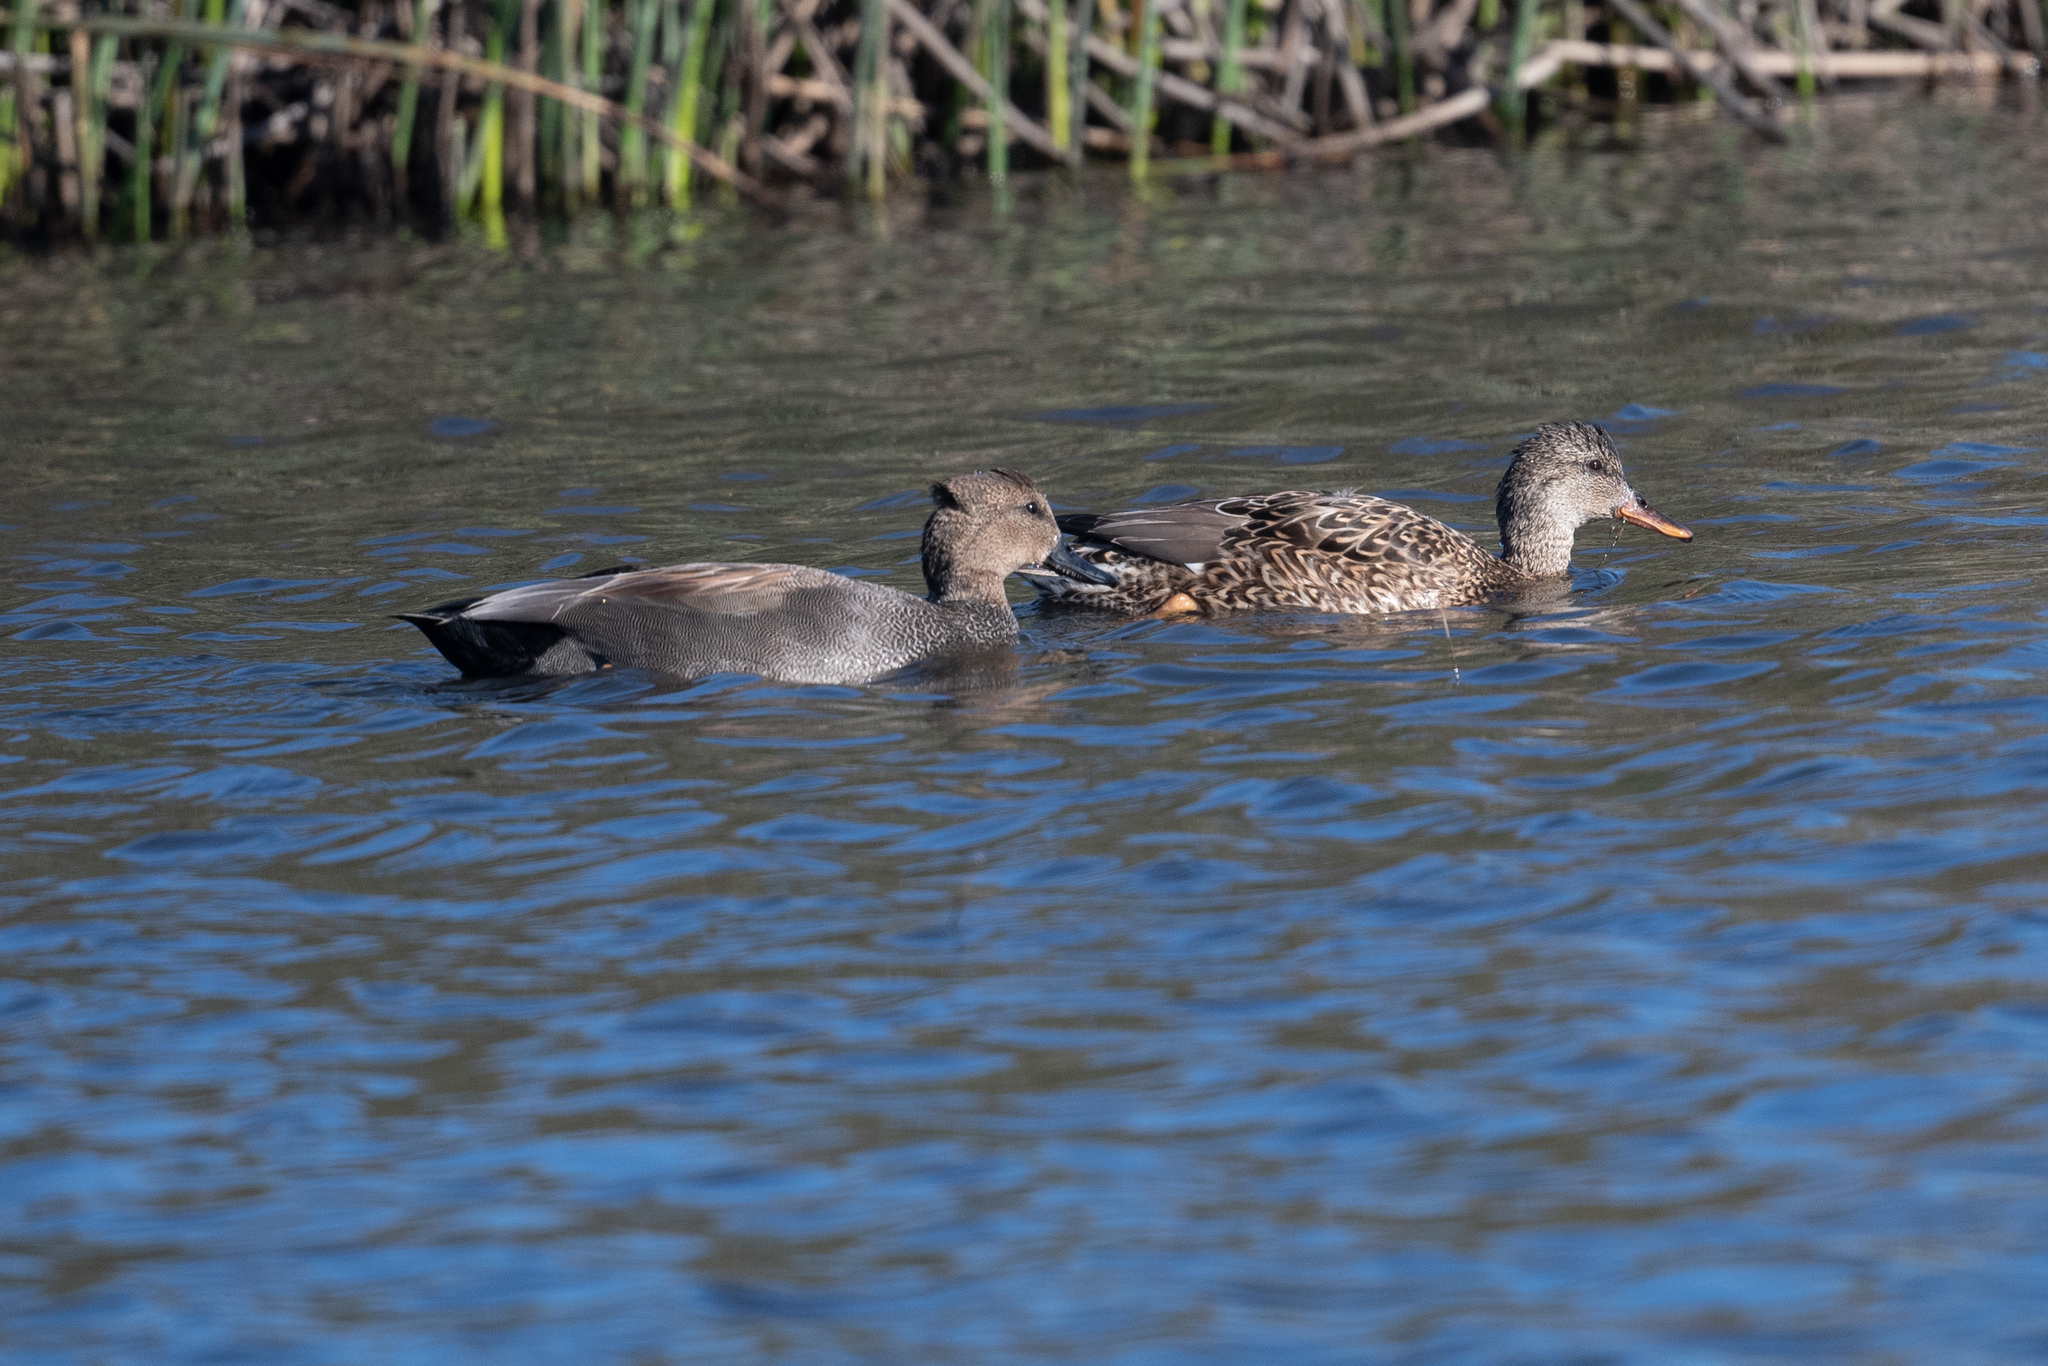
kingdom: Animalia
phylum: Chordata
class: Aves
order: Anseriformes
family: Anatidae
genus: Mareca
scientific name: Mareca strepera
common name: Gadwall
